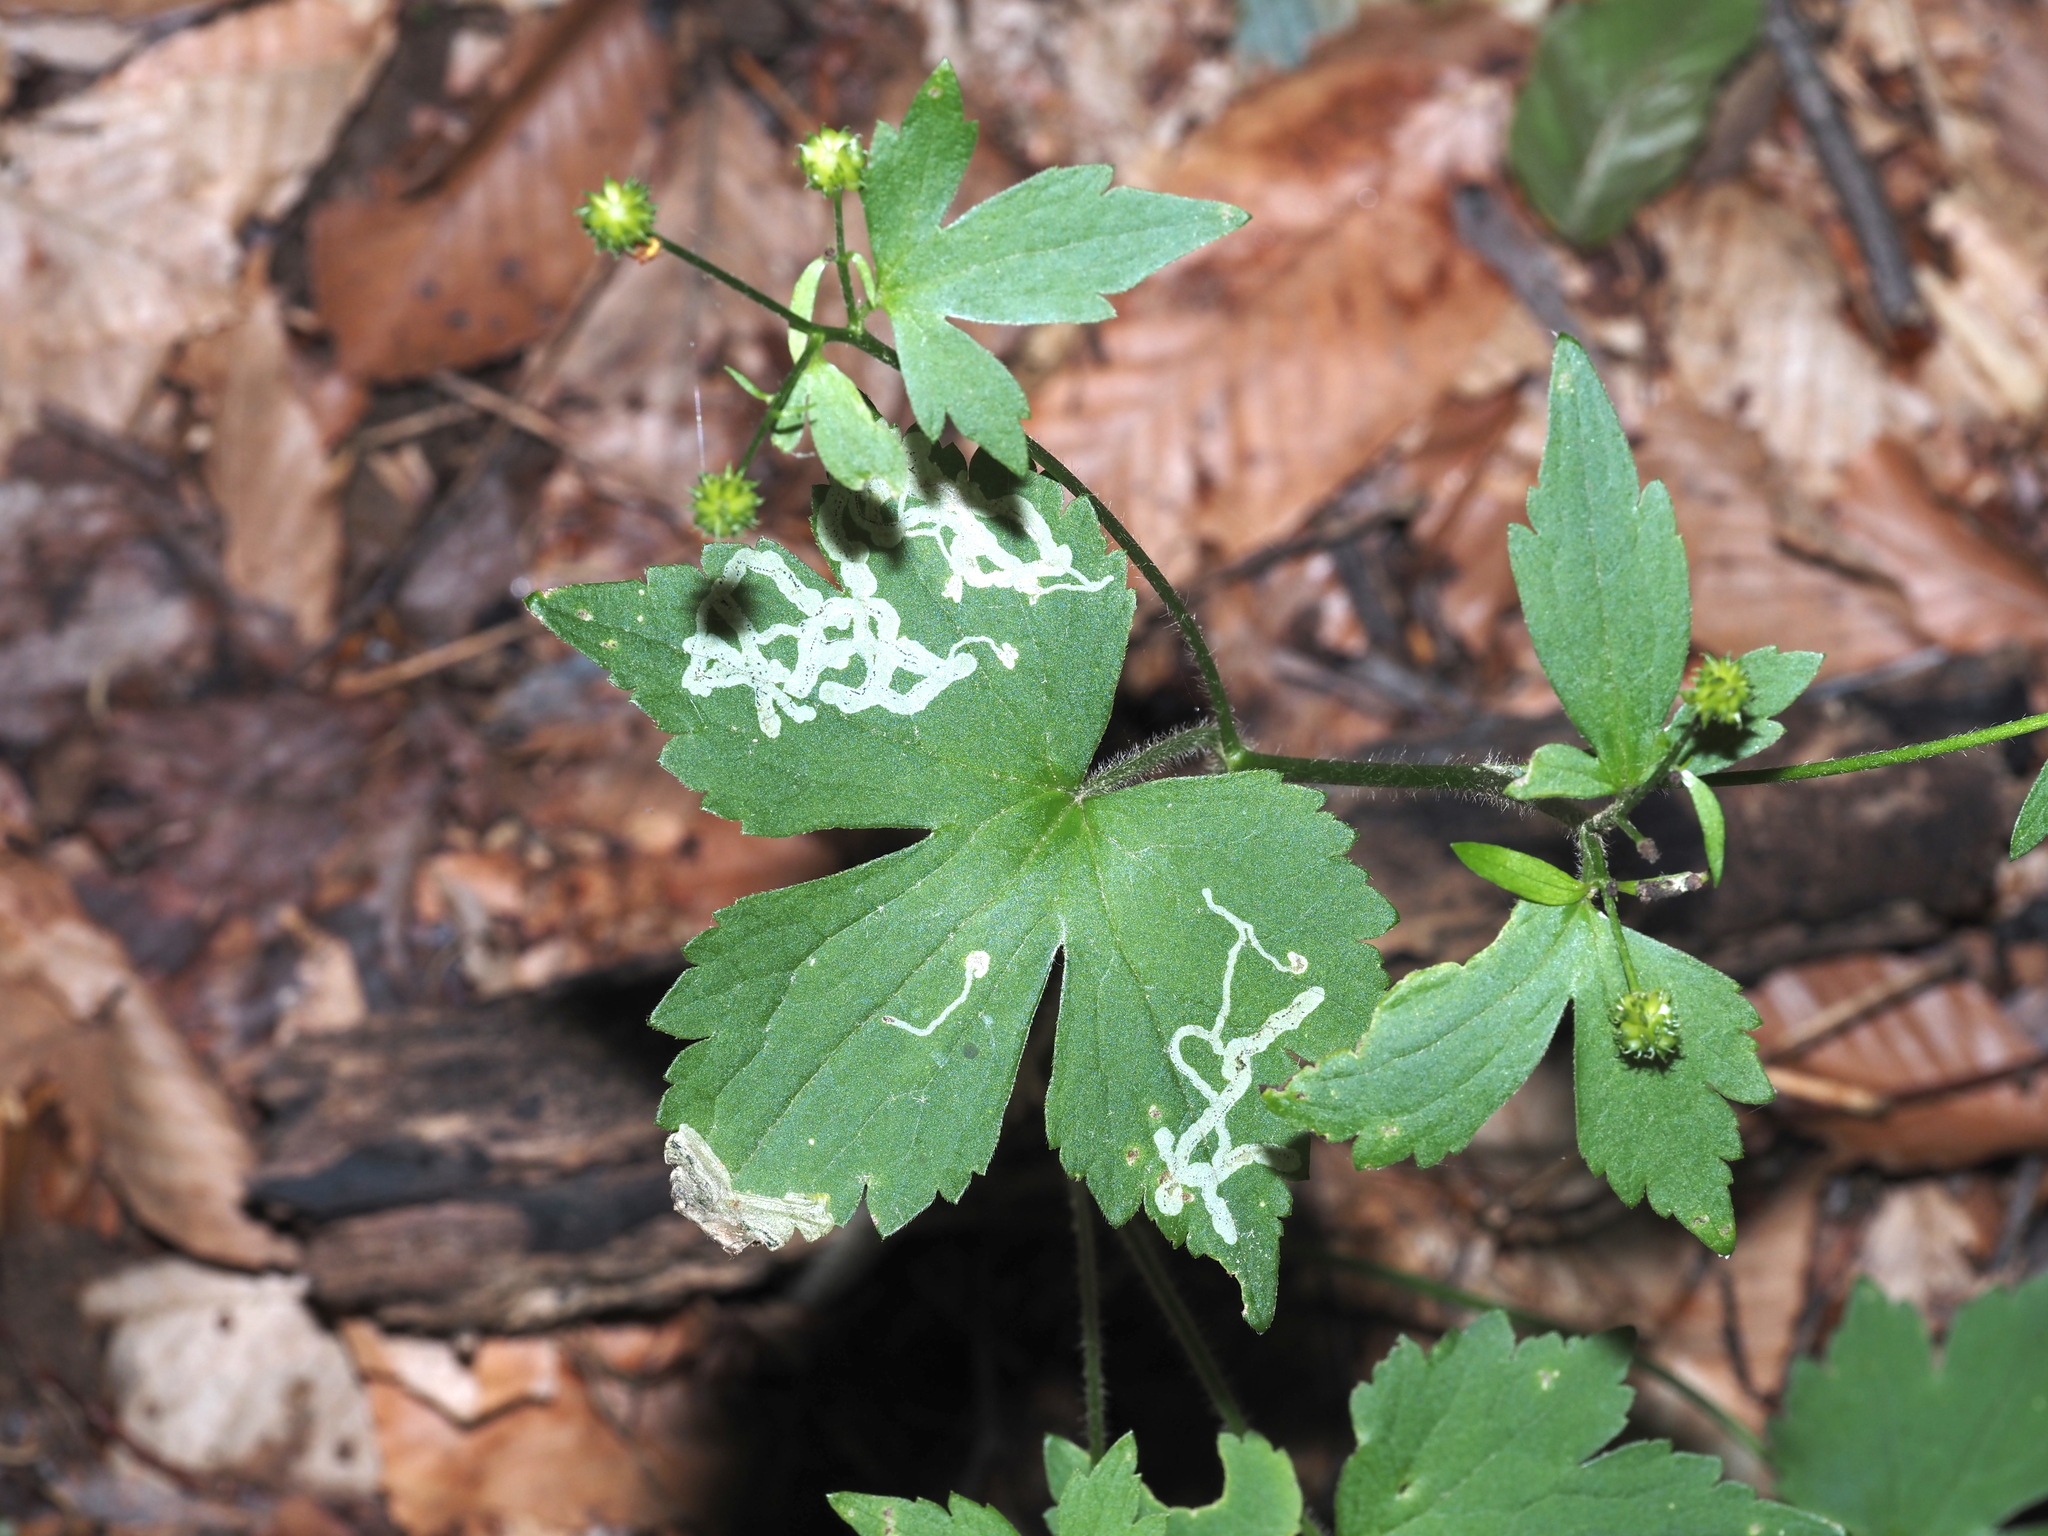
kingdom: Animalia
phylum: Arthropoda
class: Insecta
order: Diptera
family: Agromyzidae
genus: Phytomyza
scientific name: Phytomyza loewii
